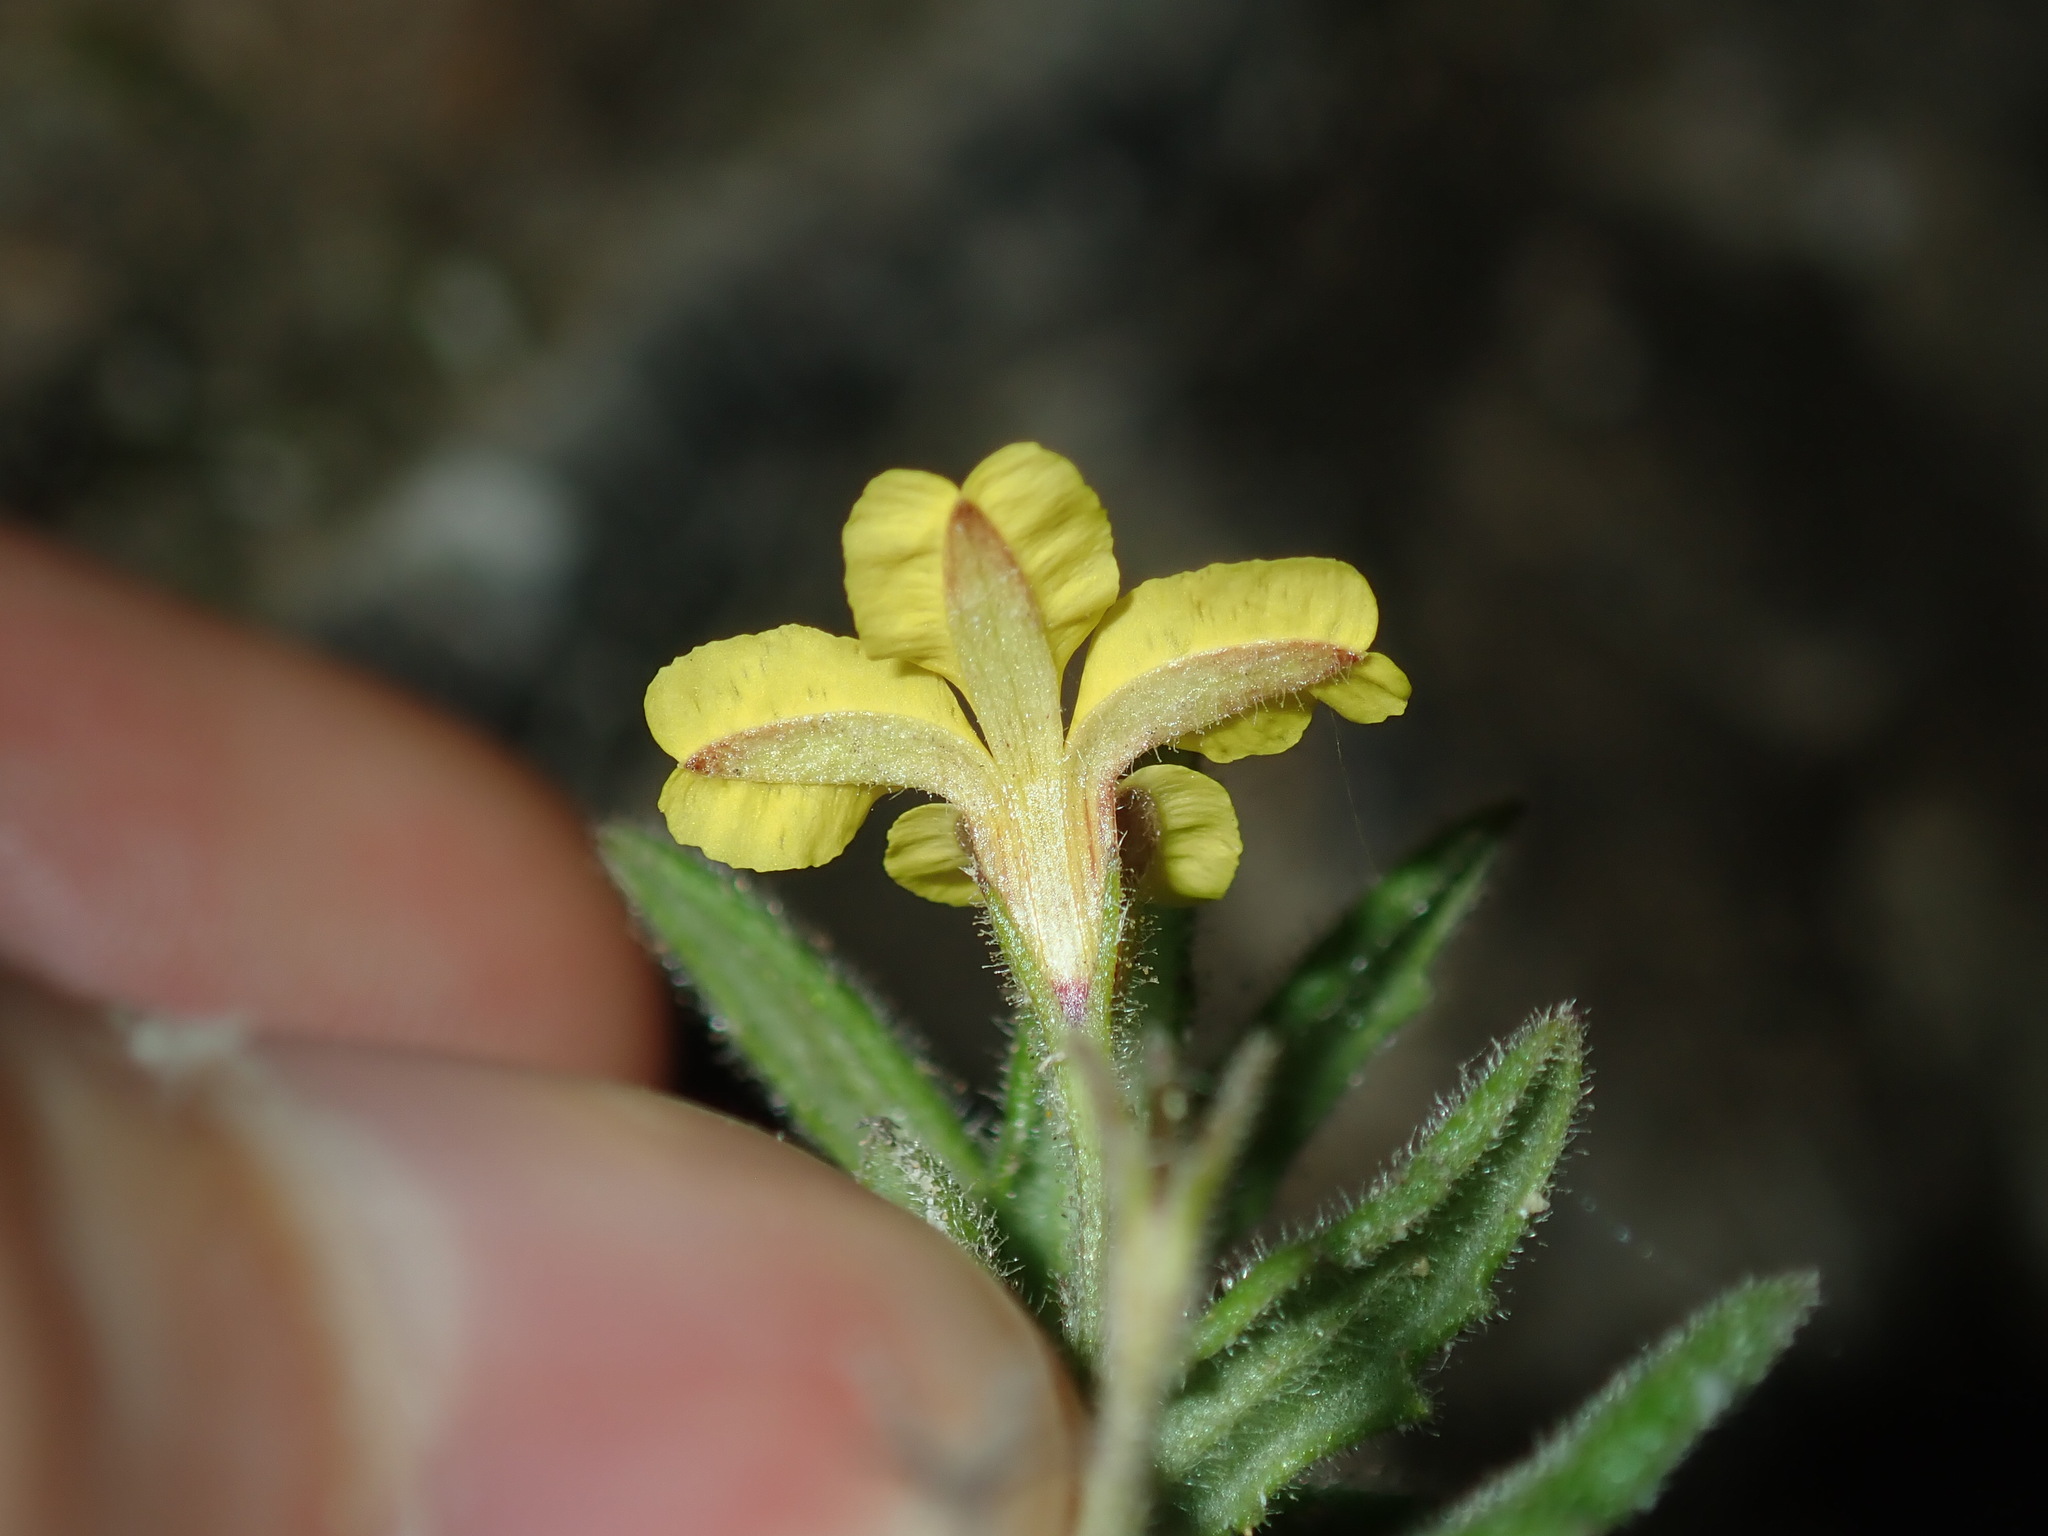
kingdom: Plantae
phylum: Tracheophyta
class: Magnoliopsida
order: Asterales
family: Goodeniaceae
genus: Goodenia
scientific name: Goodenia heterophylla
